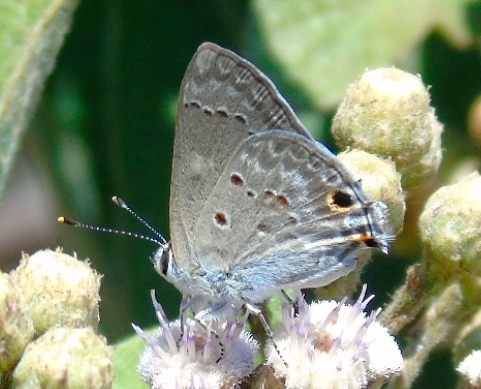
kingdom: Animalia
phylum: Arthropoda
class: Insecta
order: Lepidoptera
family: Lycaenidae
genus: Callicista
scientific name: Callicista columella
